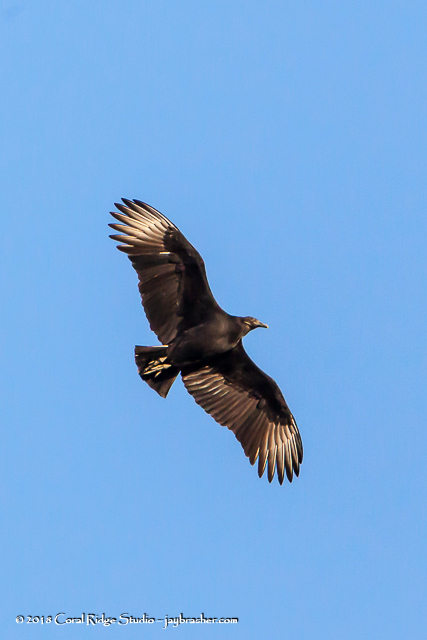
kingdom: Animalia
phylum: Chordata
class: Aves
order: Accipitriformes
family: Cathartidae
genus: Coragyps
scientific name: Coragyps atratus
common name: Black vulture
